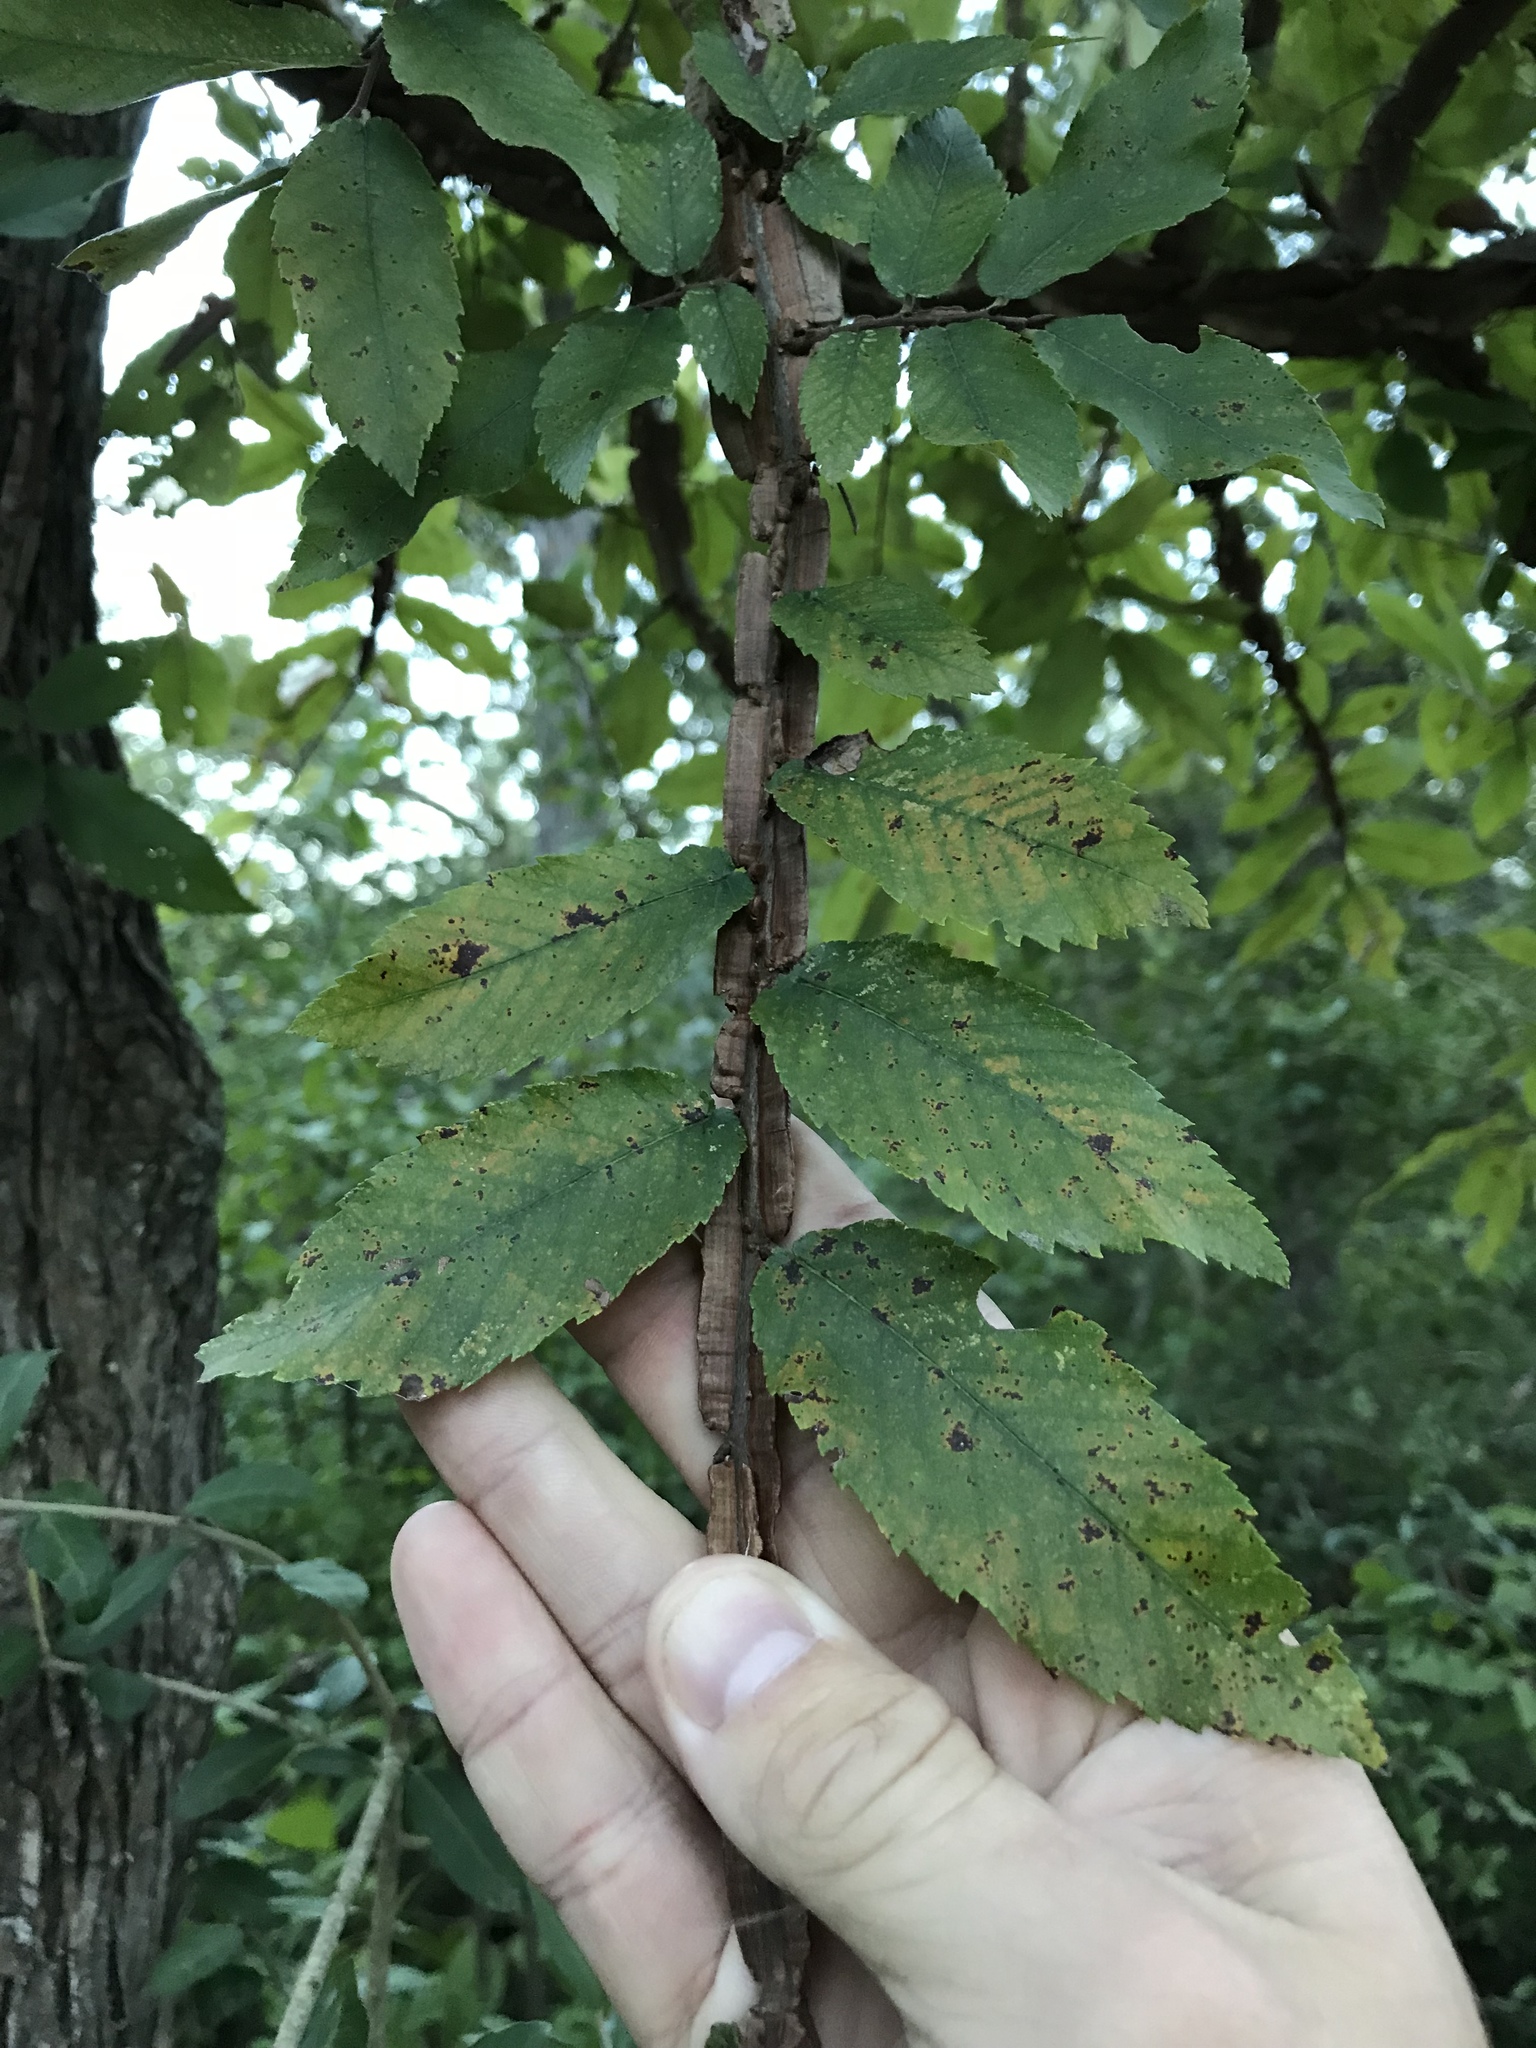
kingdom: Plantae
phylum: Tracheophyta
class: Magnoliopsida
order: Rosales
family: Ulmaceae
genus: Ulmus
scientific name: Ulmus alata
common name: Winged elm
